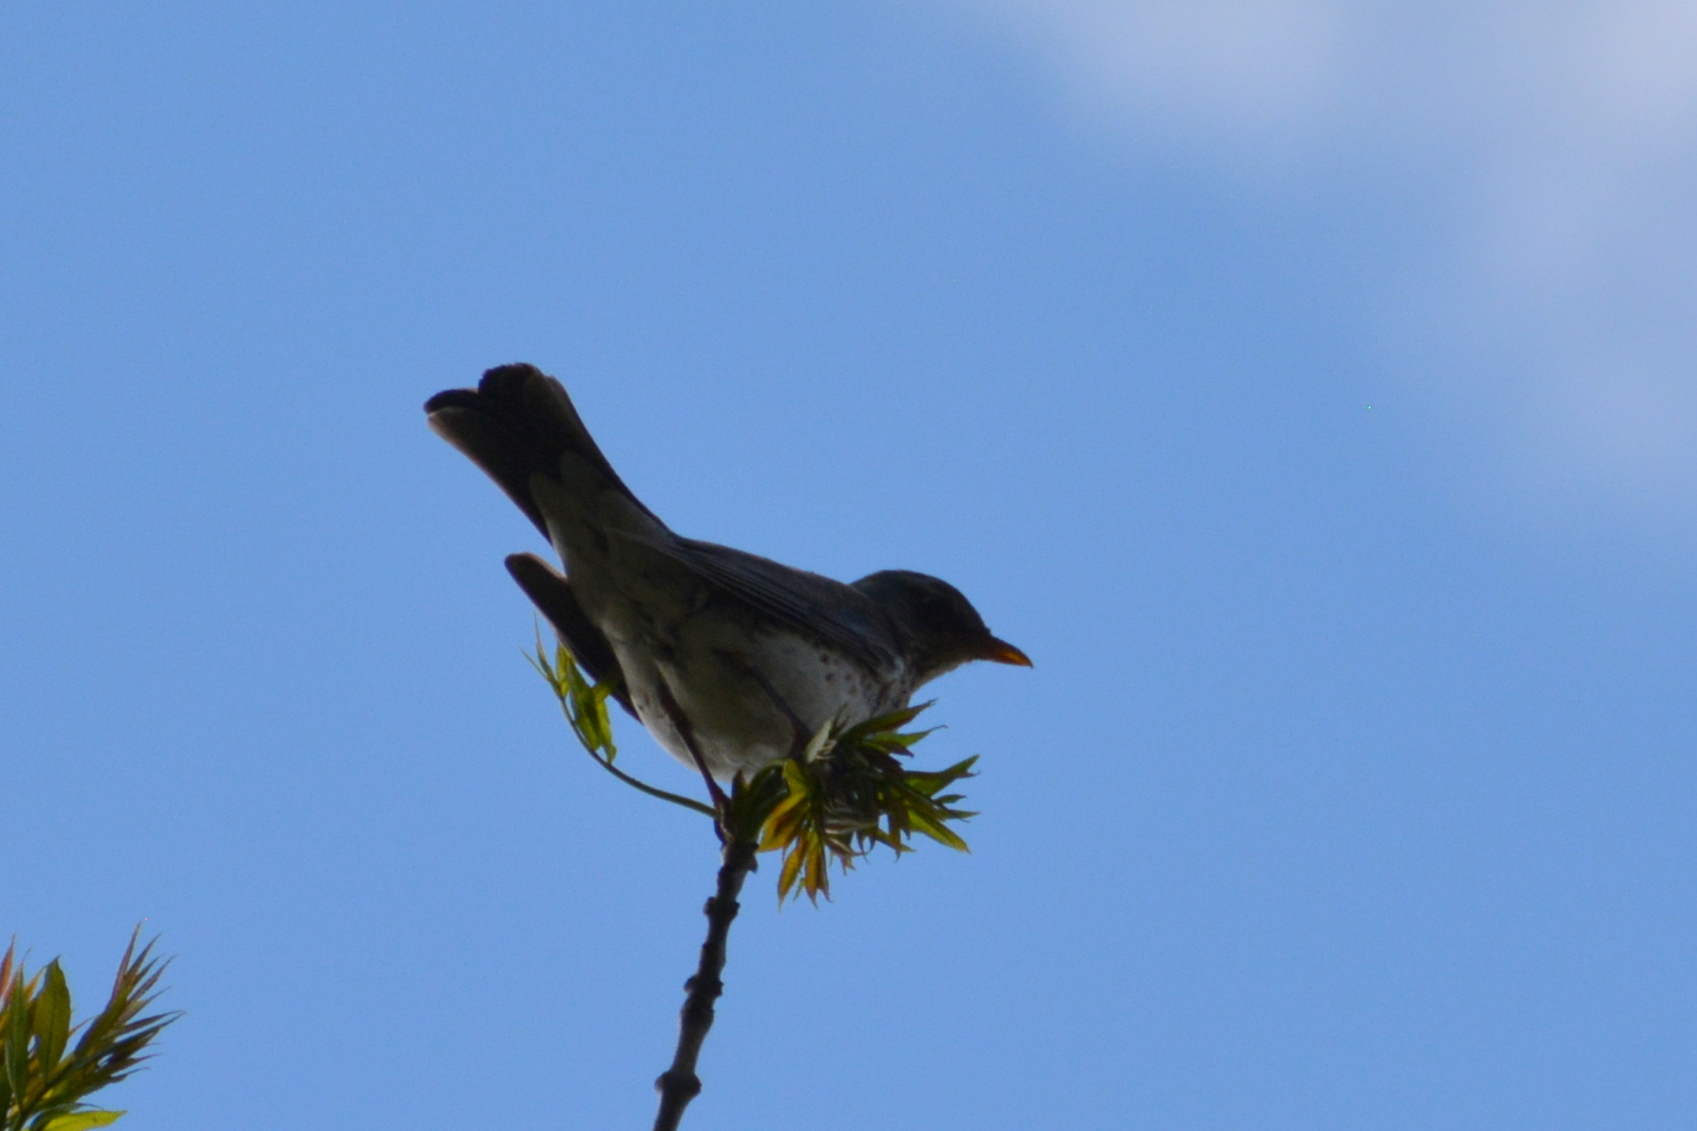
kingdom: Animalia
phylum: Chordata
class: Aves
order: Passeriformes
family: Turdidae
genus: Turdus
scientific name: Turdus pilaris
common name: Fieldfare
